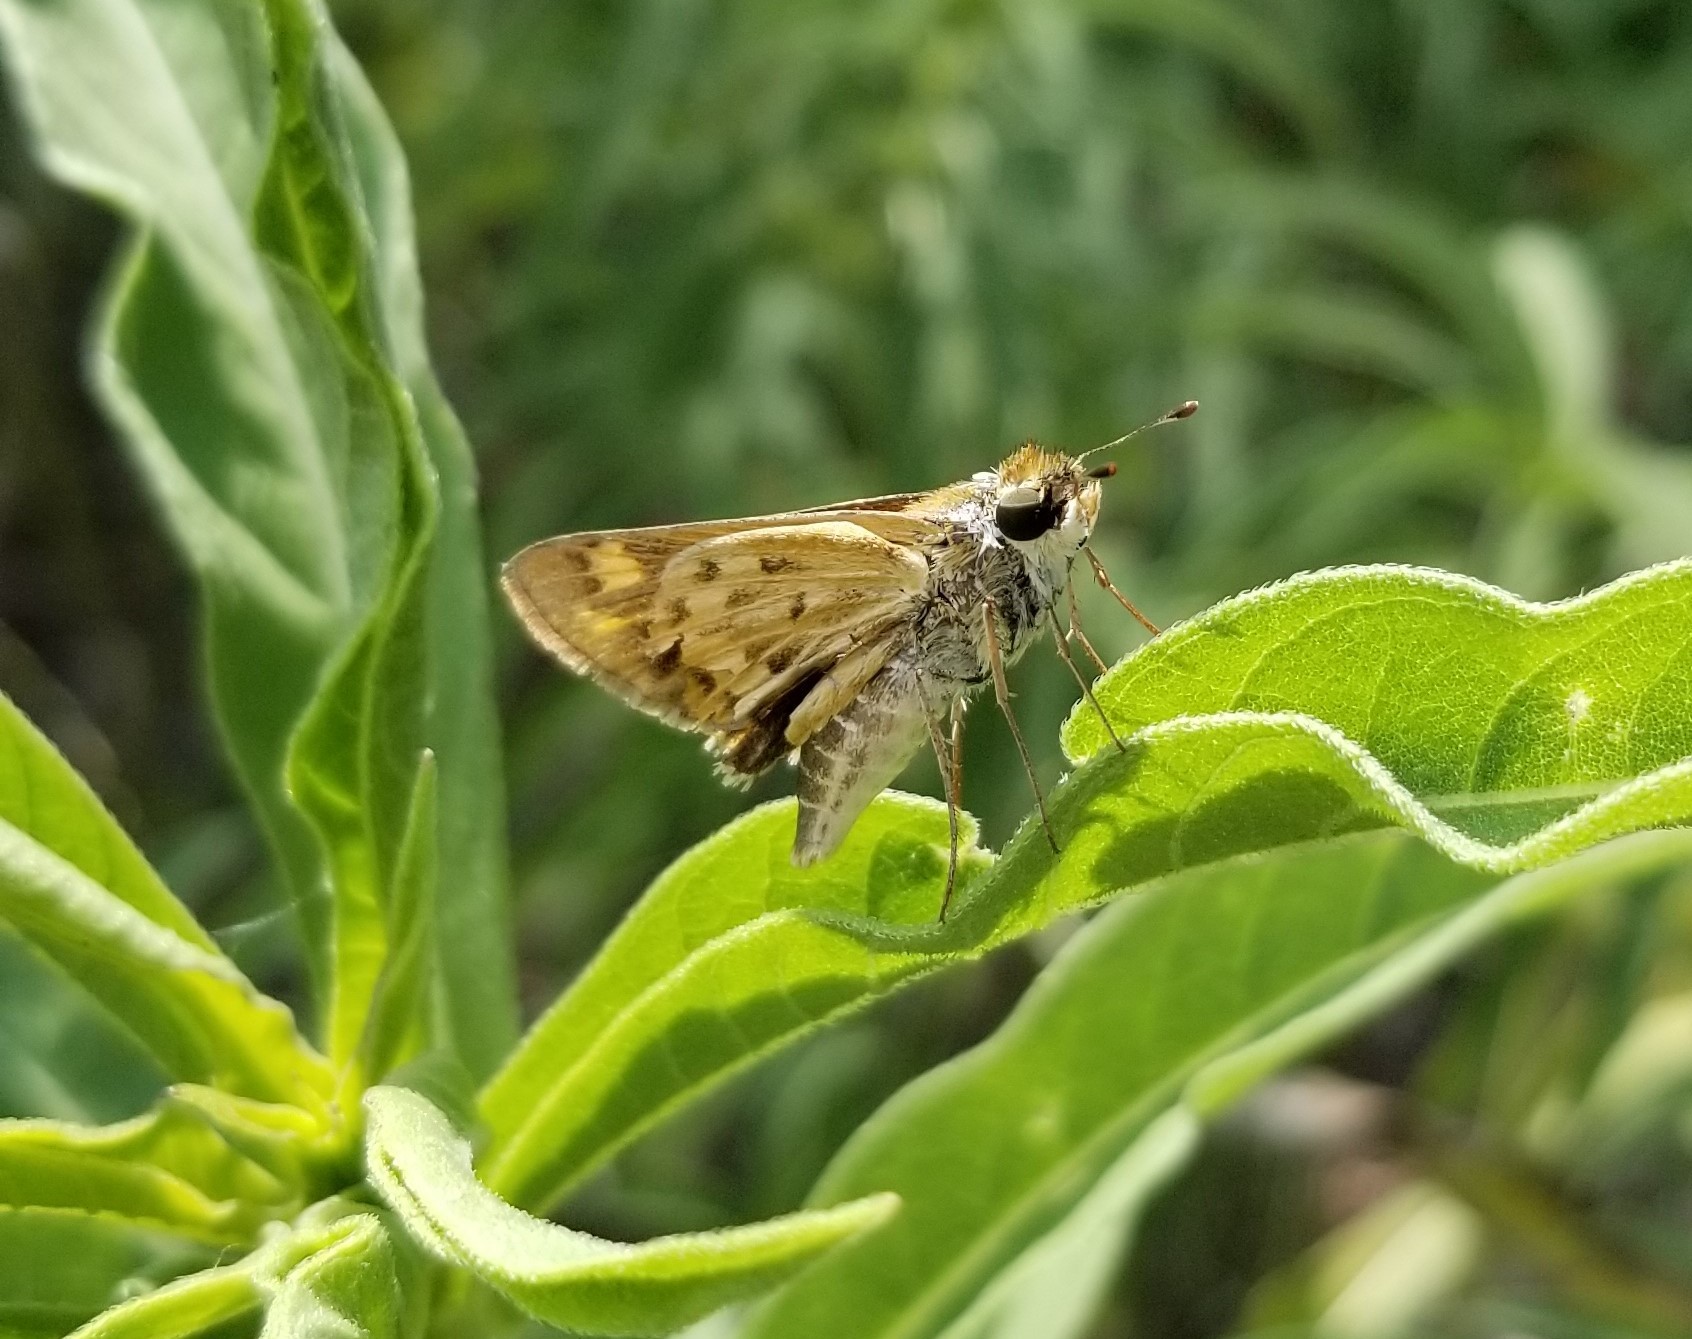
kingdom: Animalia
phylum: Arthropoda
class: Insecta
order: Lepidoptera
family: Hesperiidae
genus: Hylephila
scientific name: Hylephila phyleus
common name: Fiery skipper
